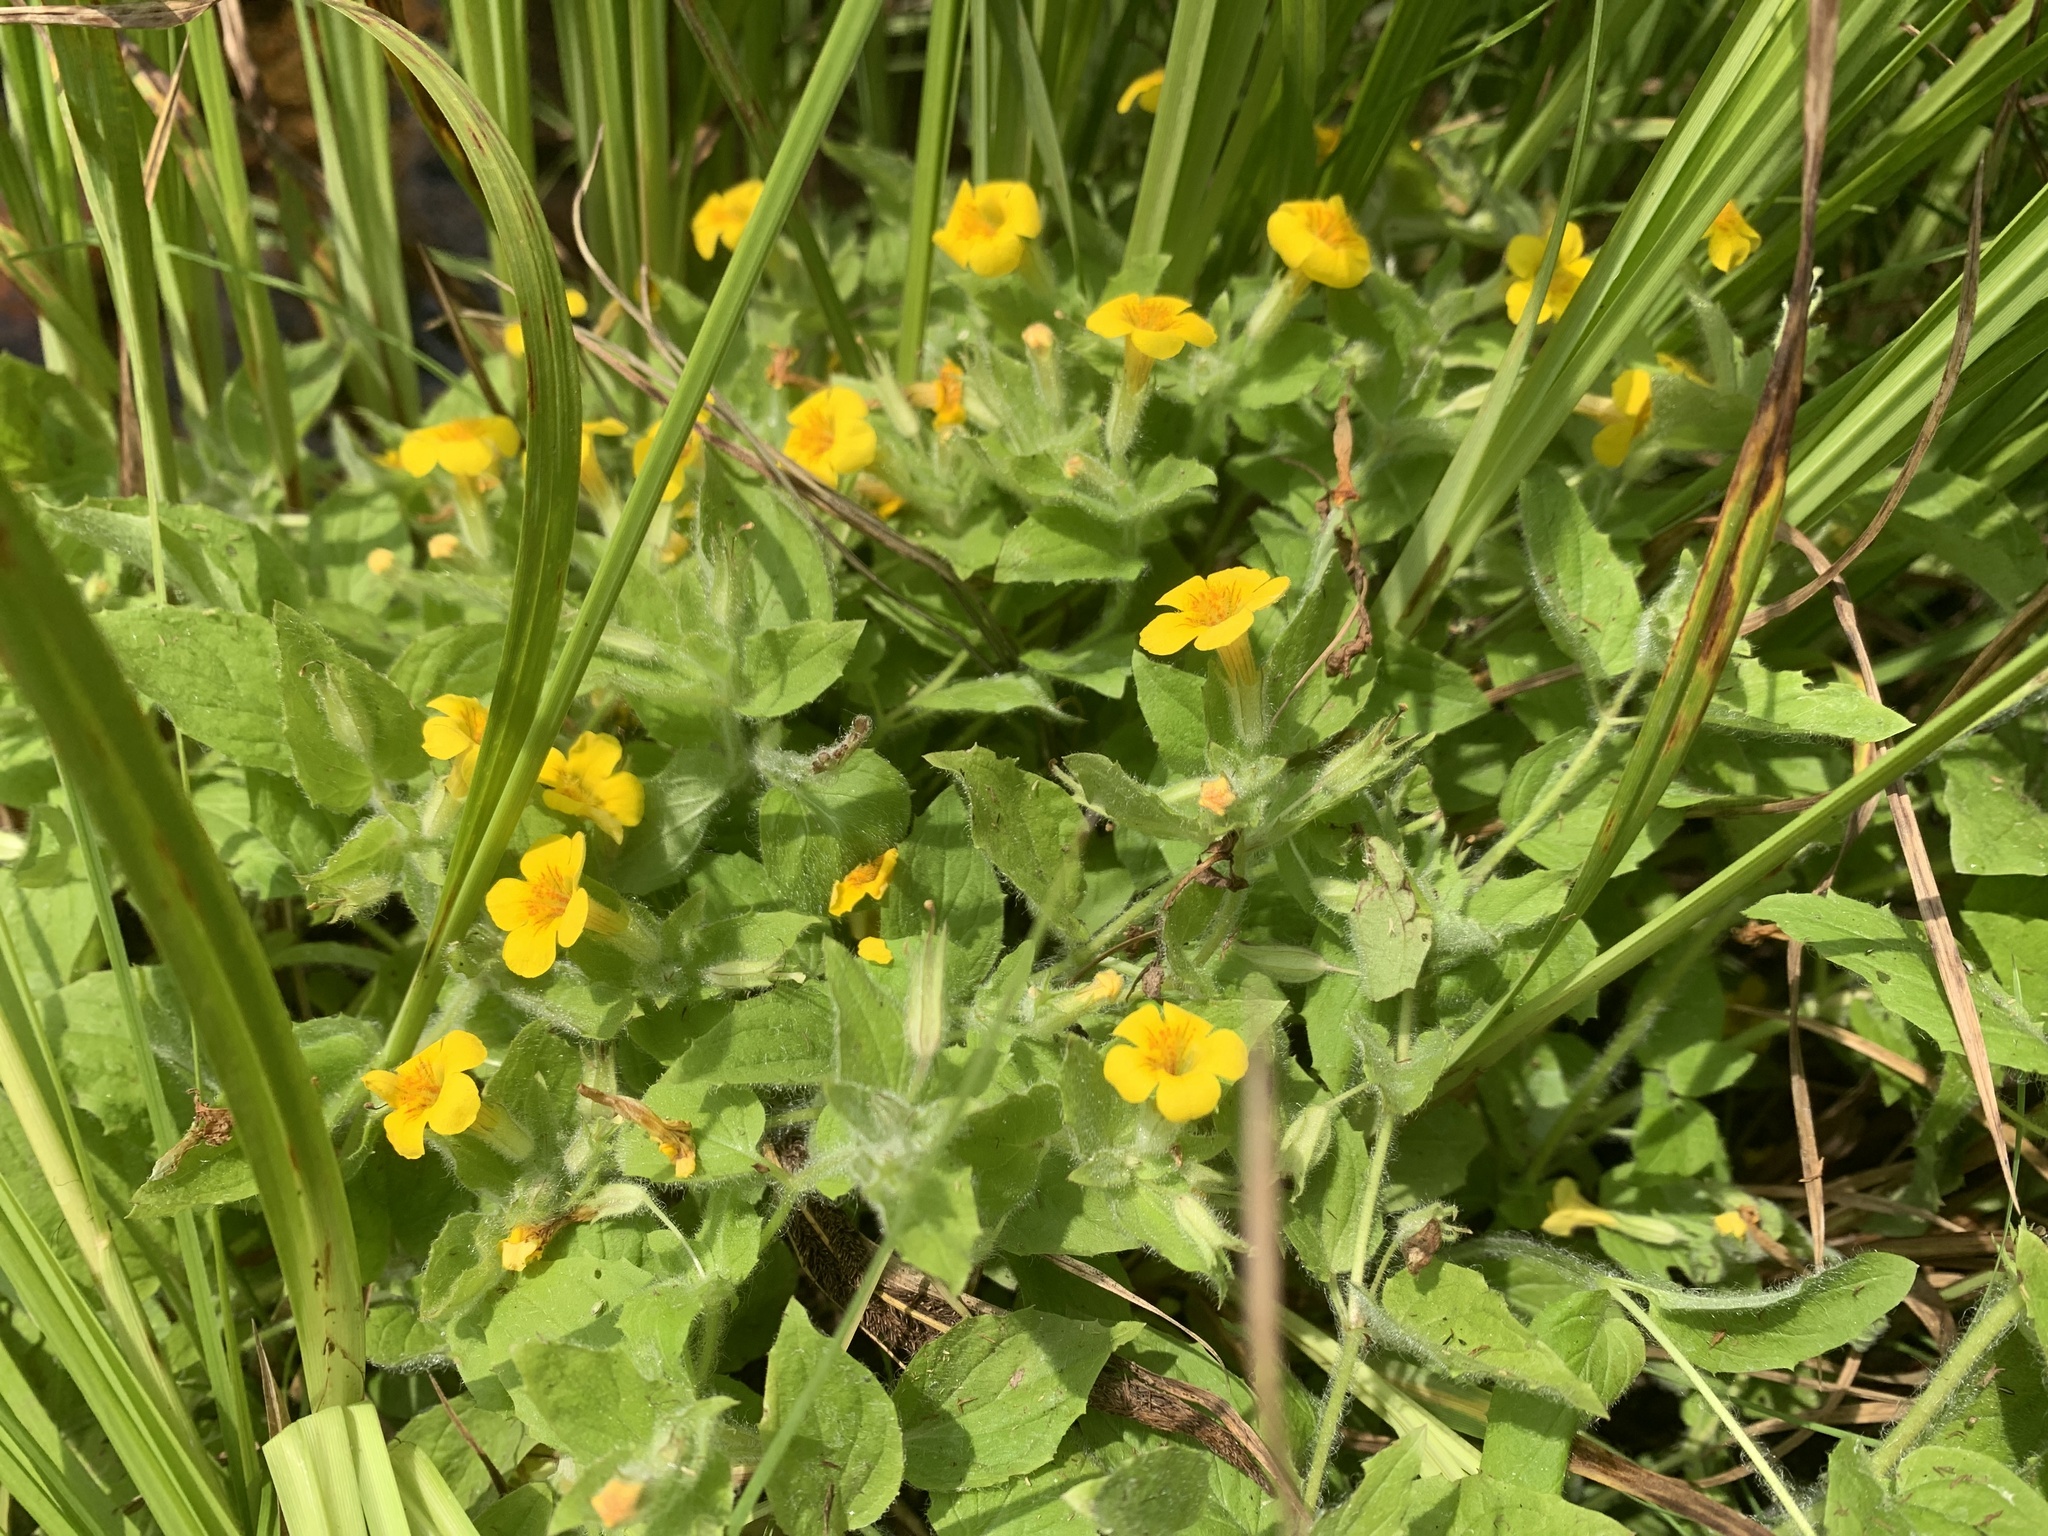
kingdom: Plantae
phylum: Tracheophyta
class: Magnoliopsida
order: Lamiales
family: Phrymaceae
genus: Erythranthe
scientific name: Erythranthe moschata
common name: Muskflower
